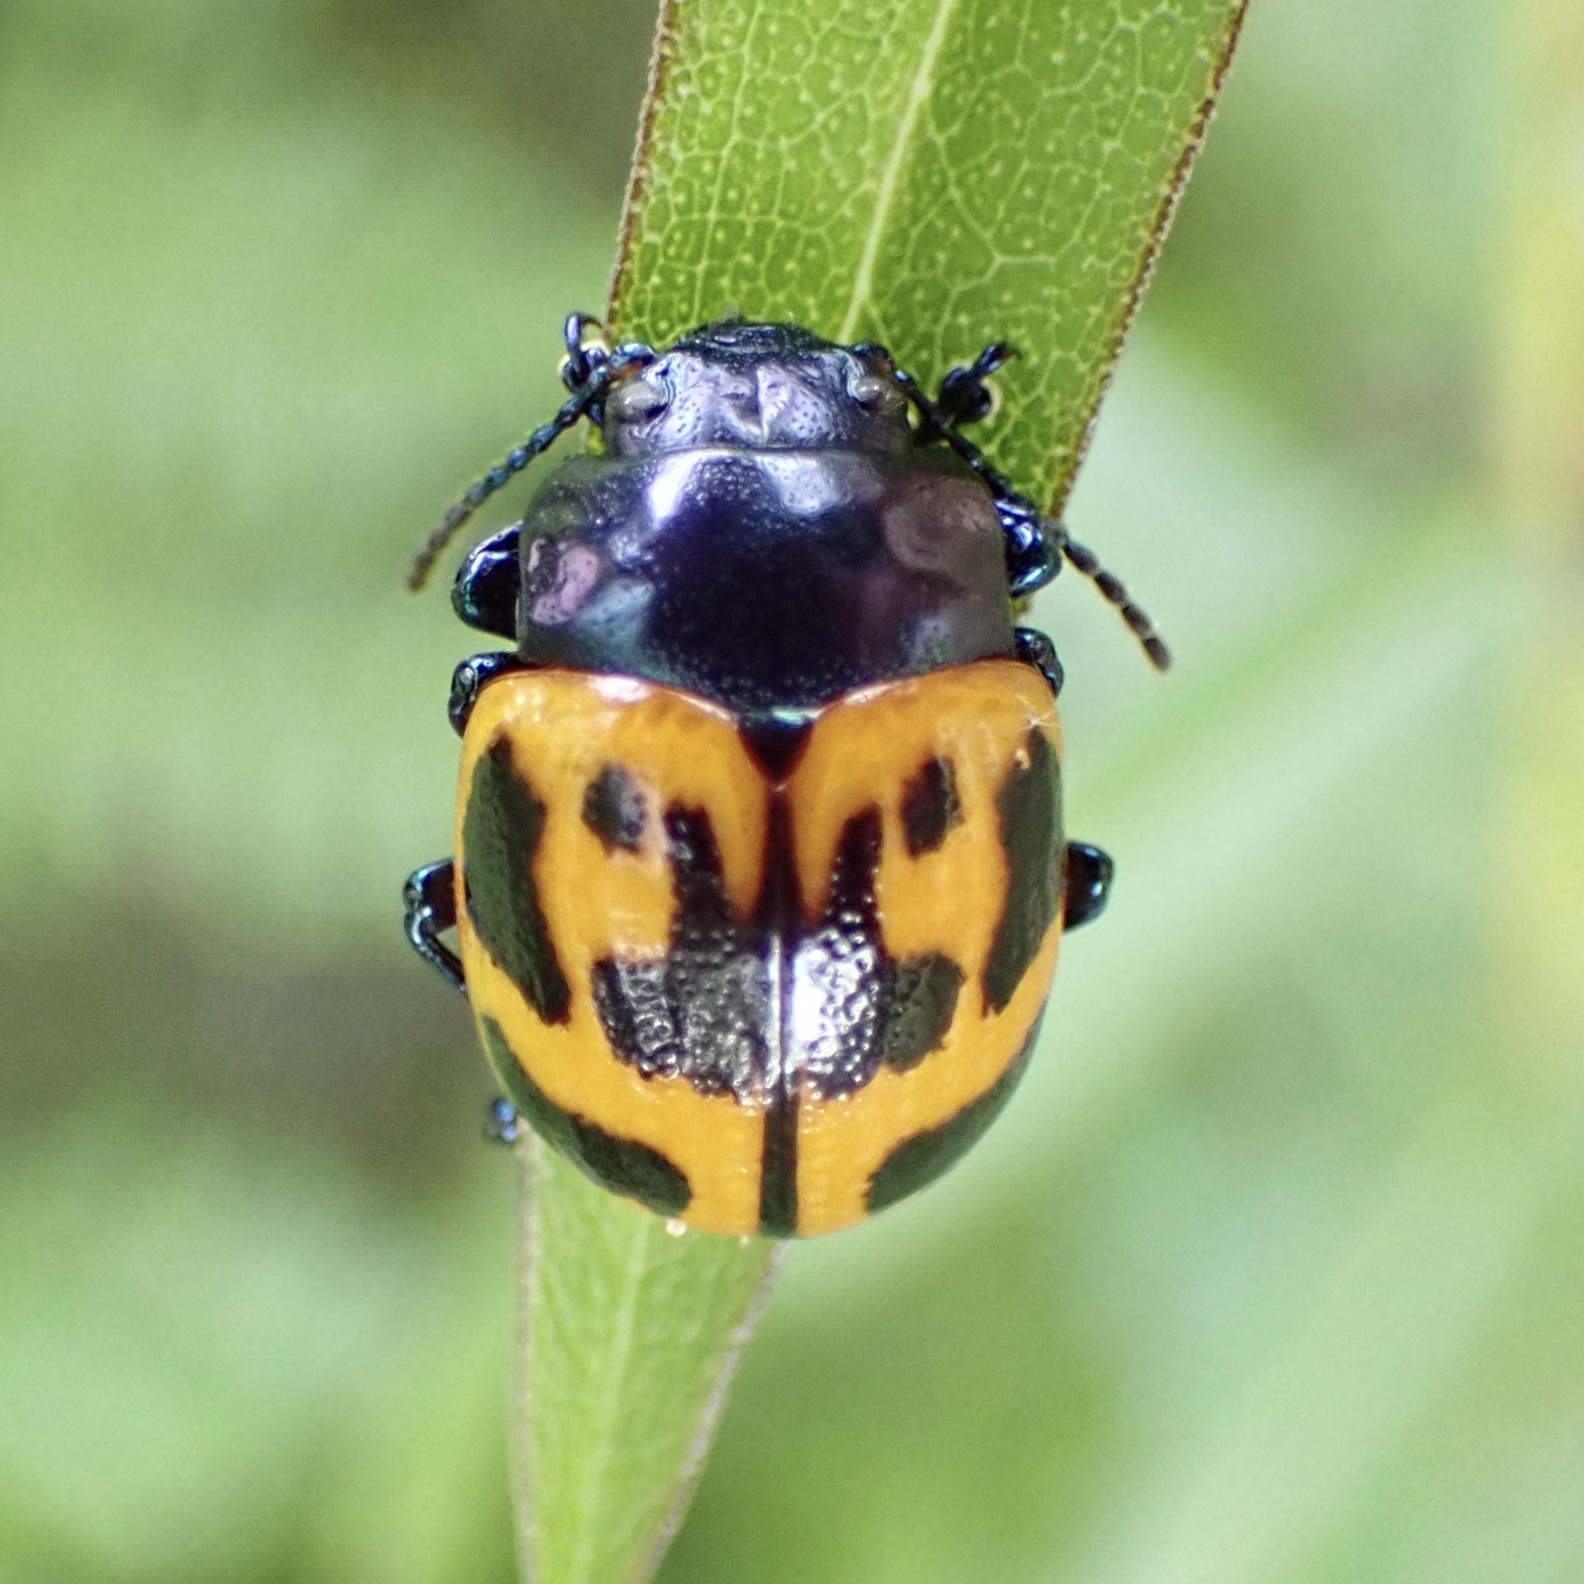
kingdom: Animalia
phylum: Arthropoda
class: Insecta
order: Coleoptera
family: Chrysomelidae
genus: Labidomera
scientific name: Labidomera clivicollis
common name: Swamp milkweed leaf beetle
